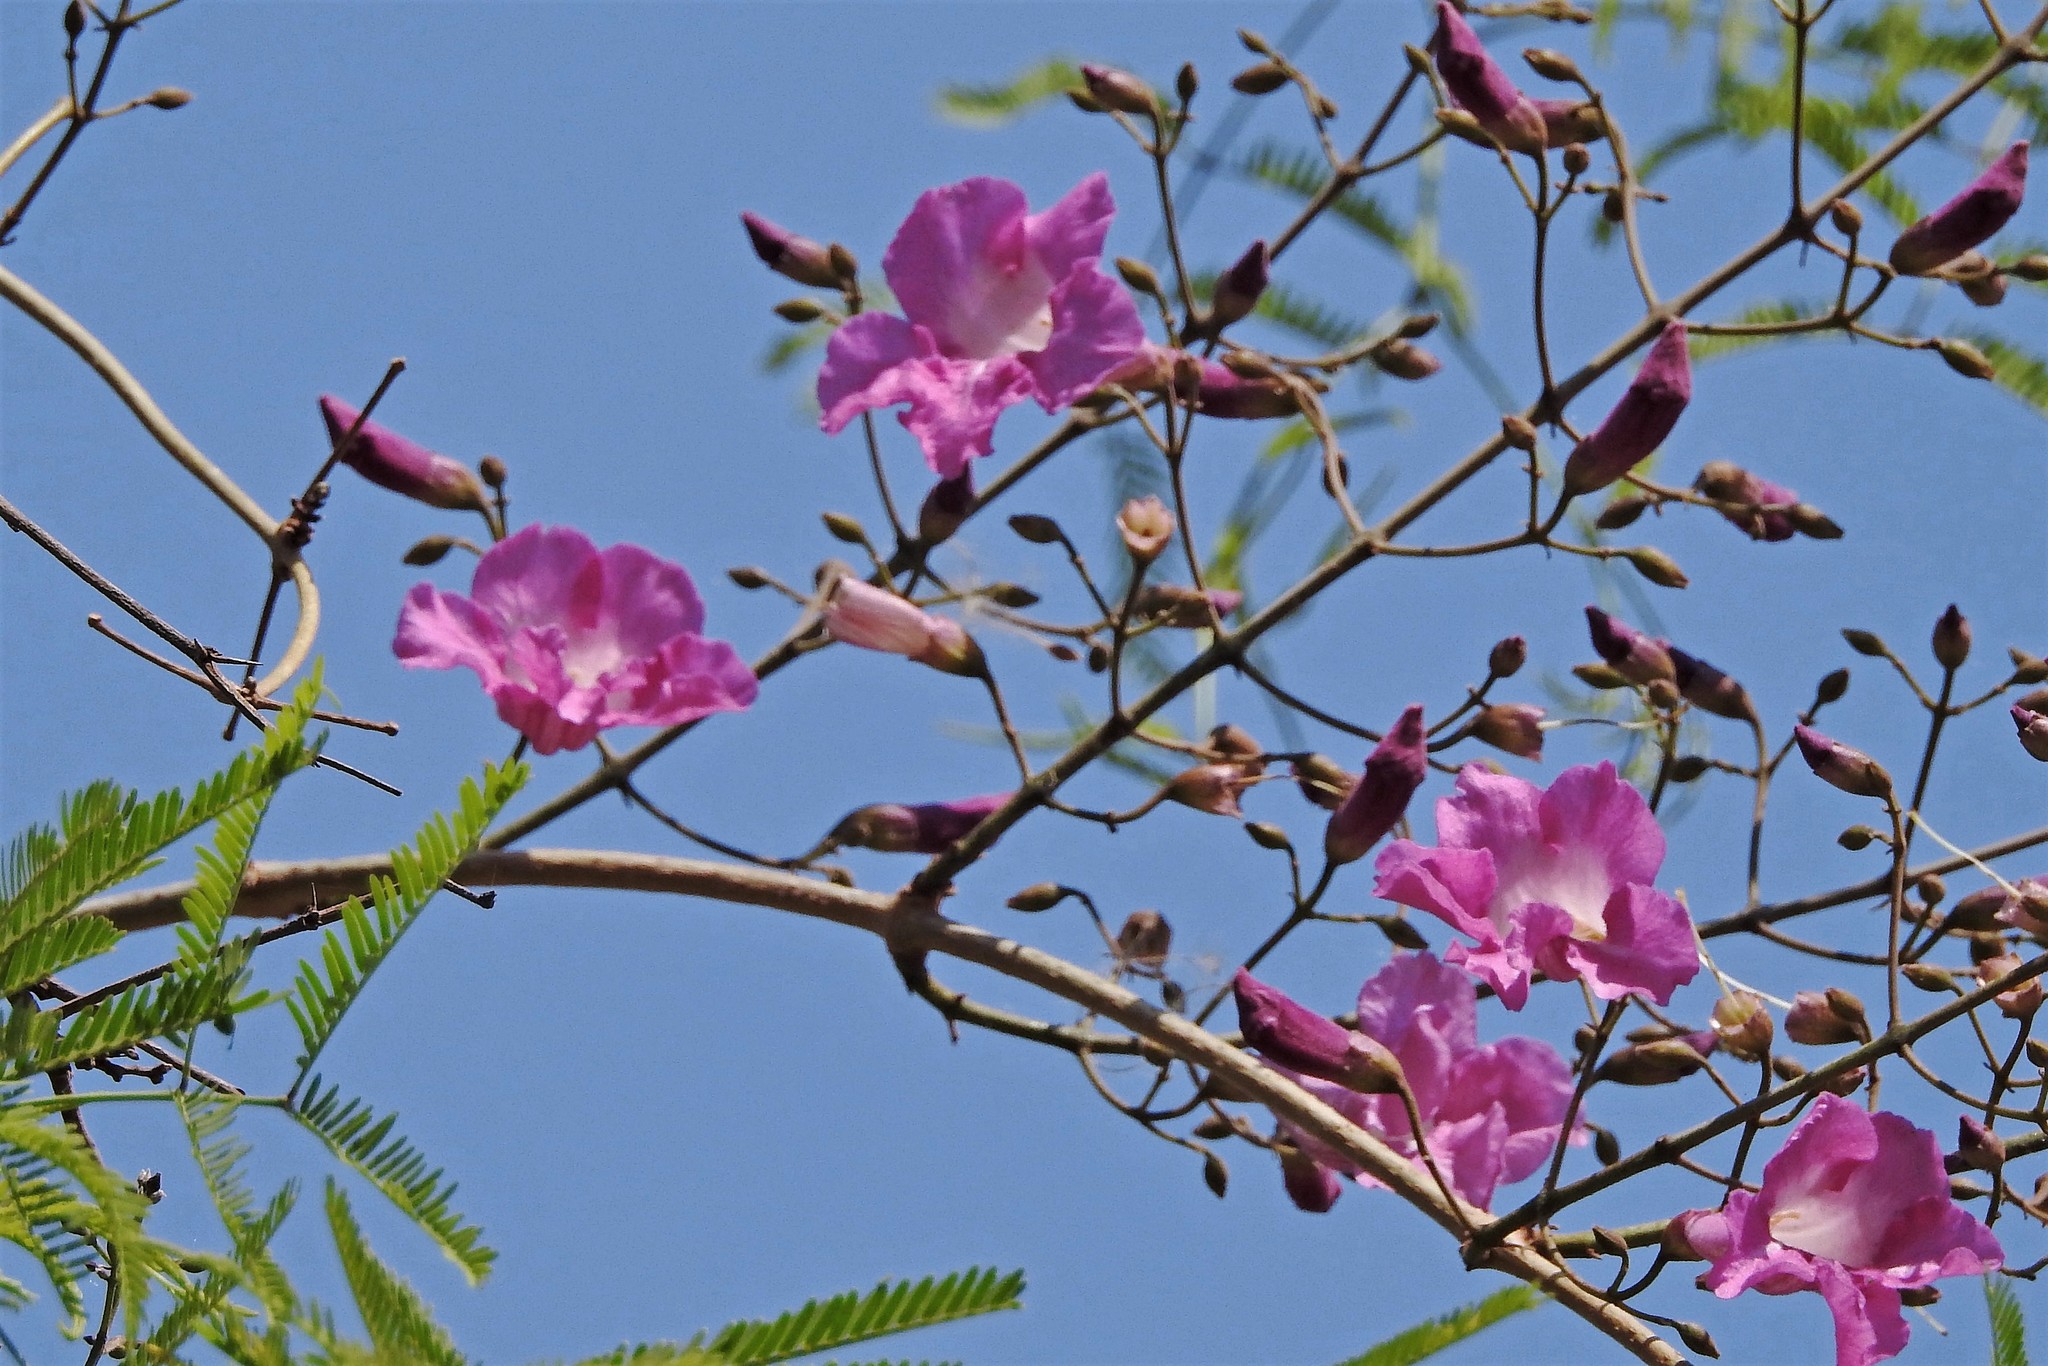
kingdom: Plantae
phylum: Tracheophyta
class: Magnoliopsida
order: Lamiales
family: Bignoniaceae
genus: Tanaecium
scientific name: Tanaecium dichotomum
